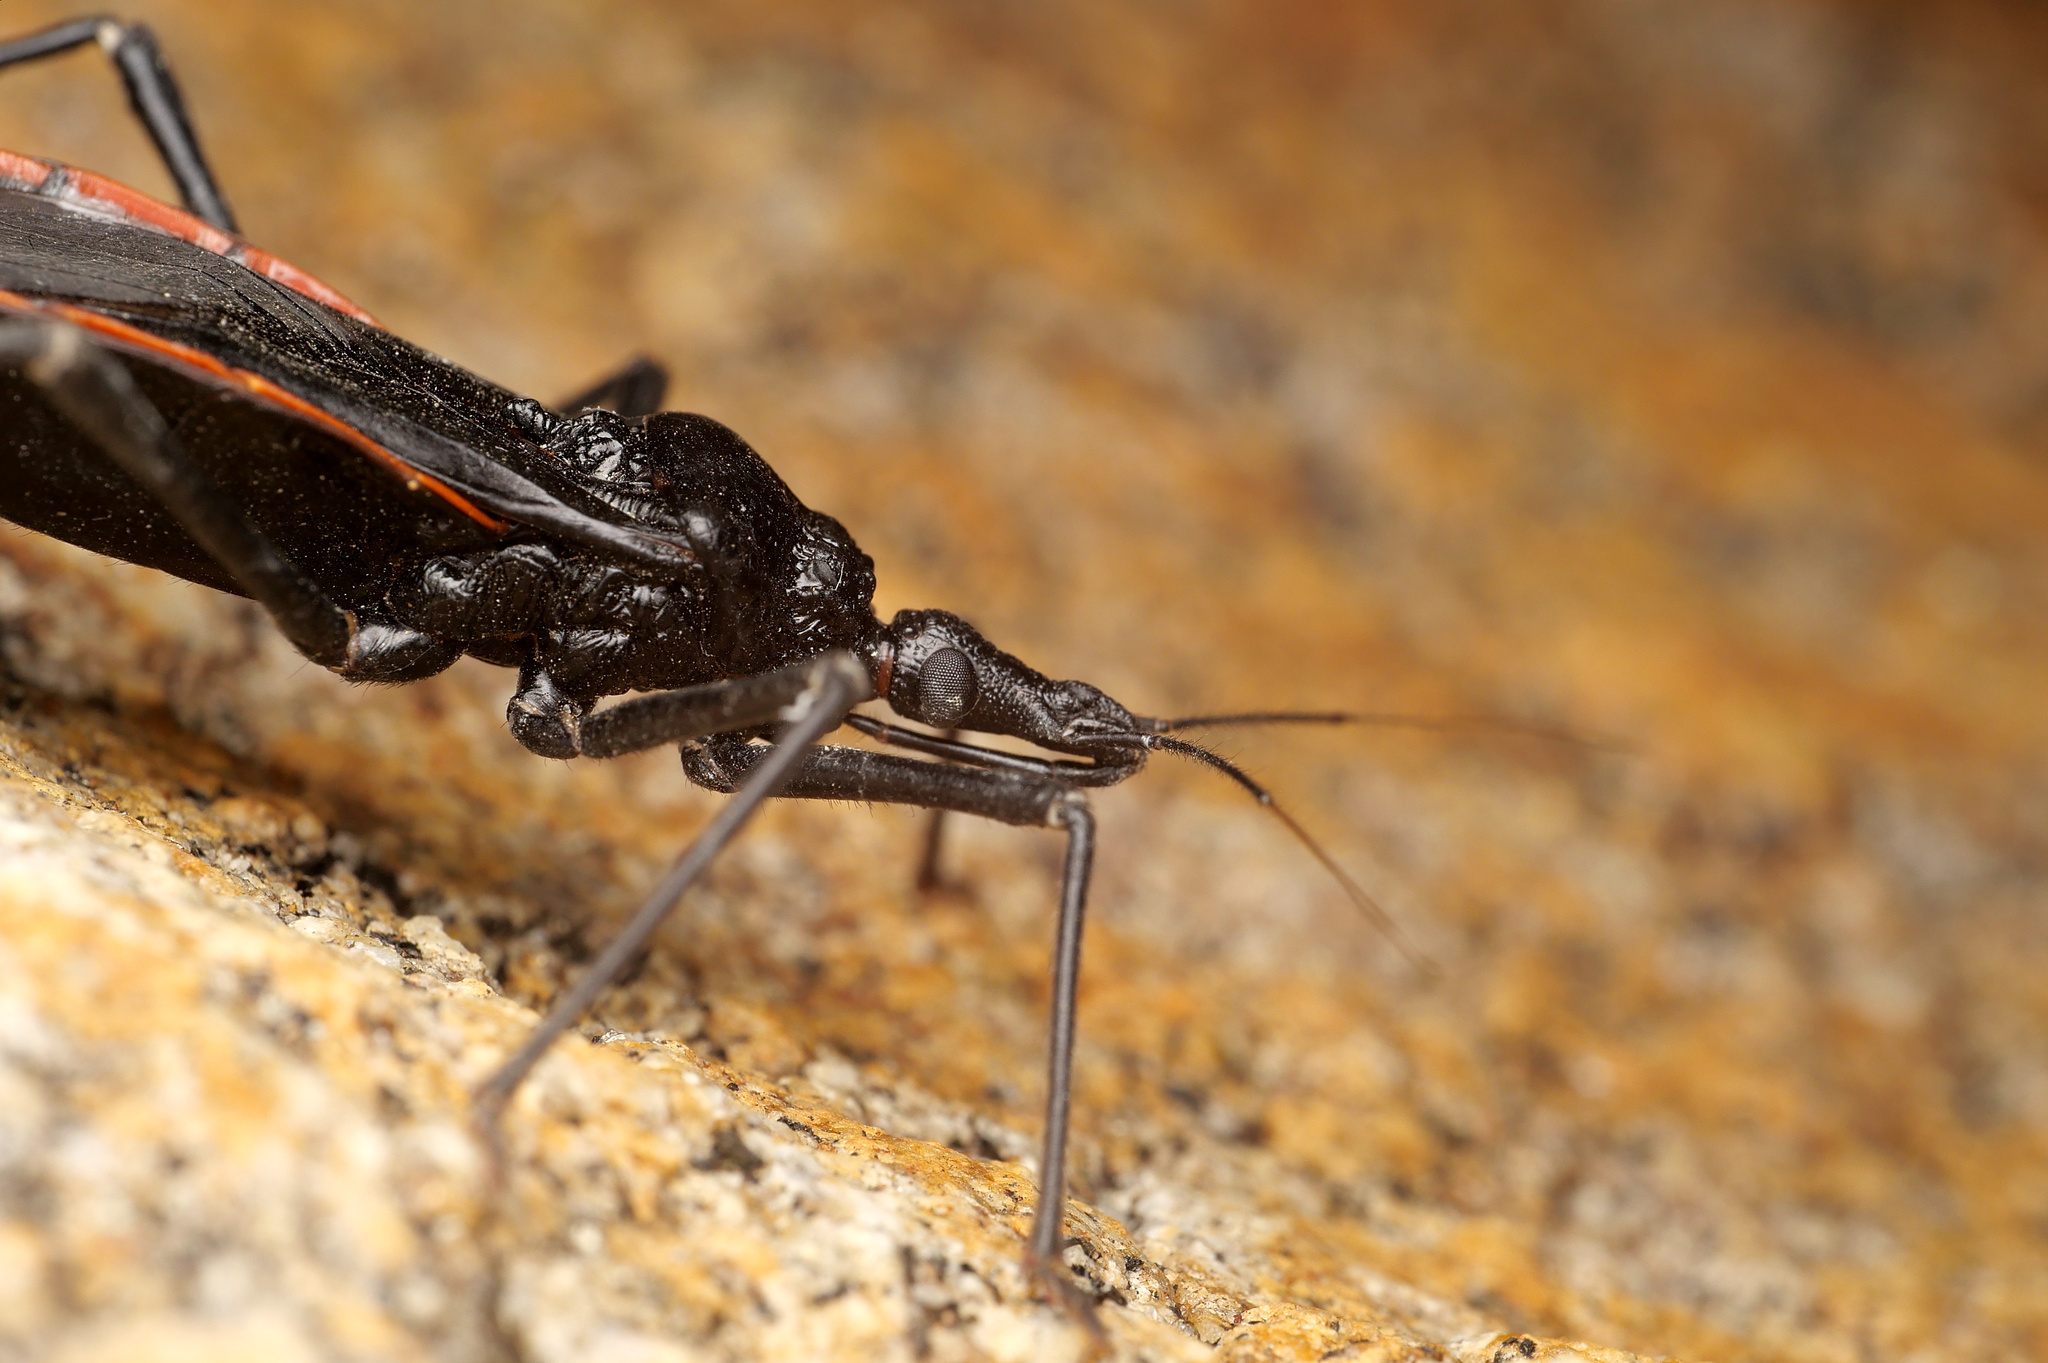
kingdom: Animalia
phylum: Arthropoda
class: Insecta
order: Hemiptera
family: Reduviidae
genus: Dipetalogaster
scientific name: Dipetalogaster maxima
